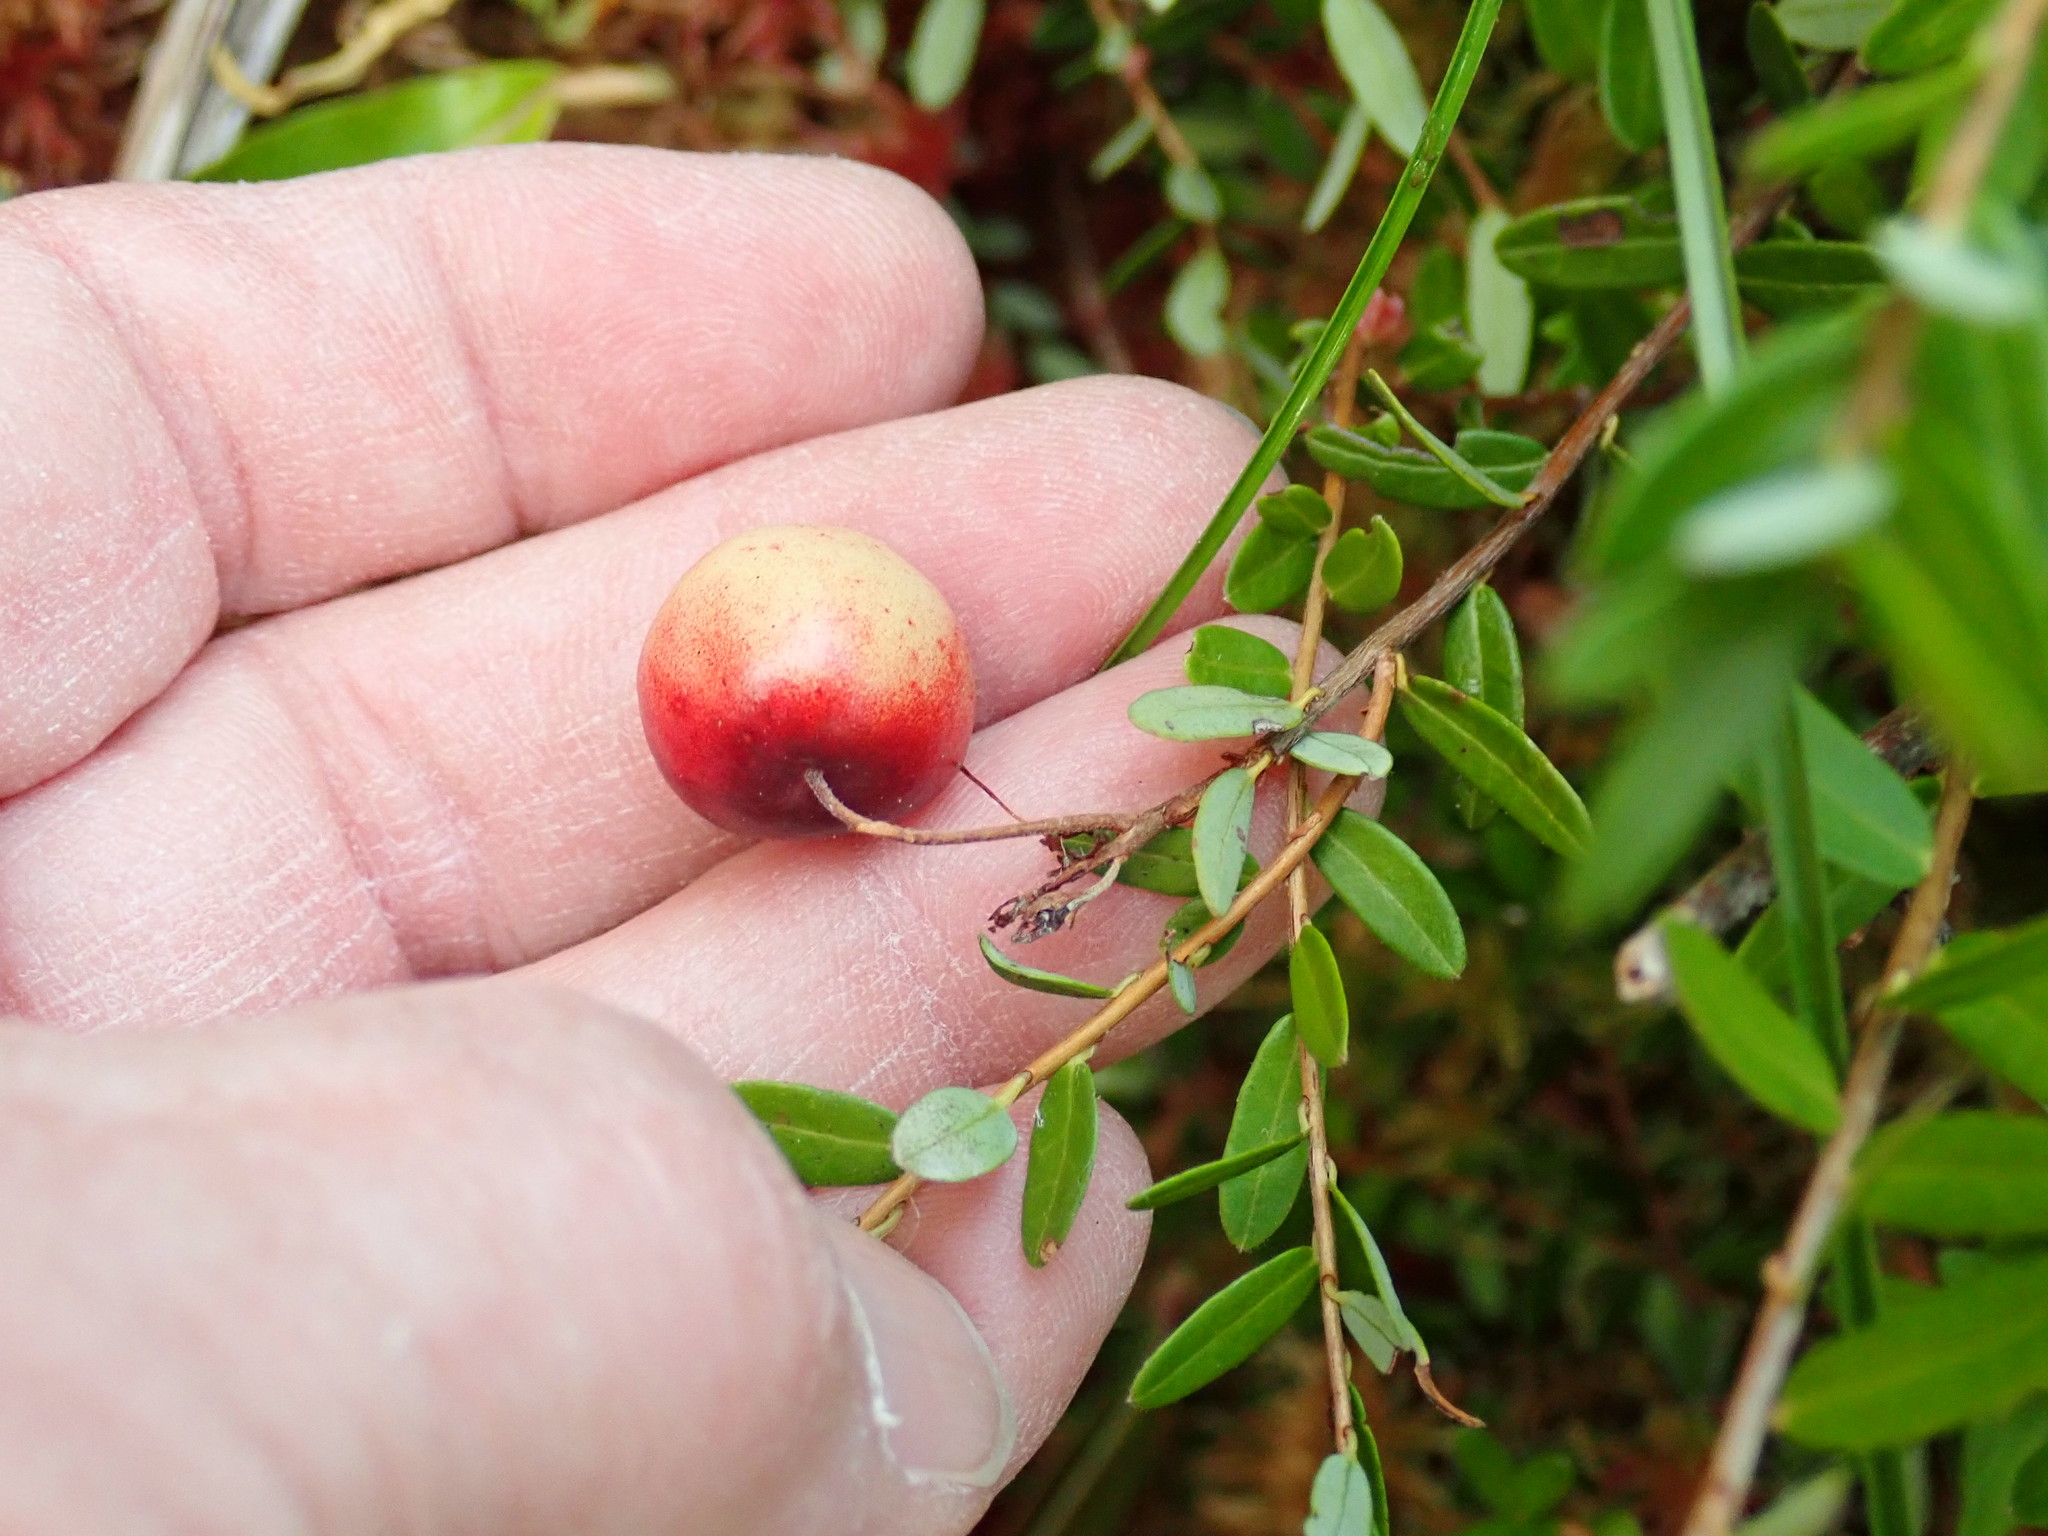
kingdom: Plantae
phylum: Tracheophyta
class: Magnoliopsida
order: Ericales
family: Ericaceae
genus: Vaccinium
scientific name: Vaccinium macrocarpon
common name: American cranberry
